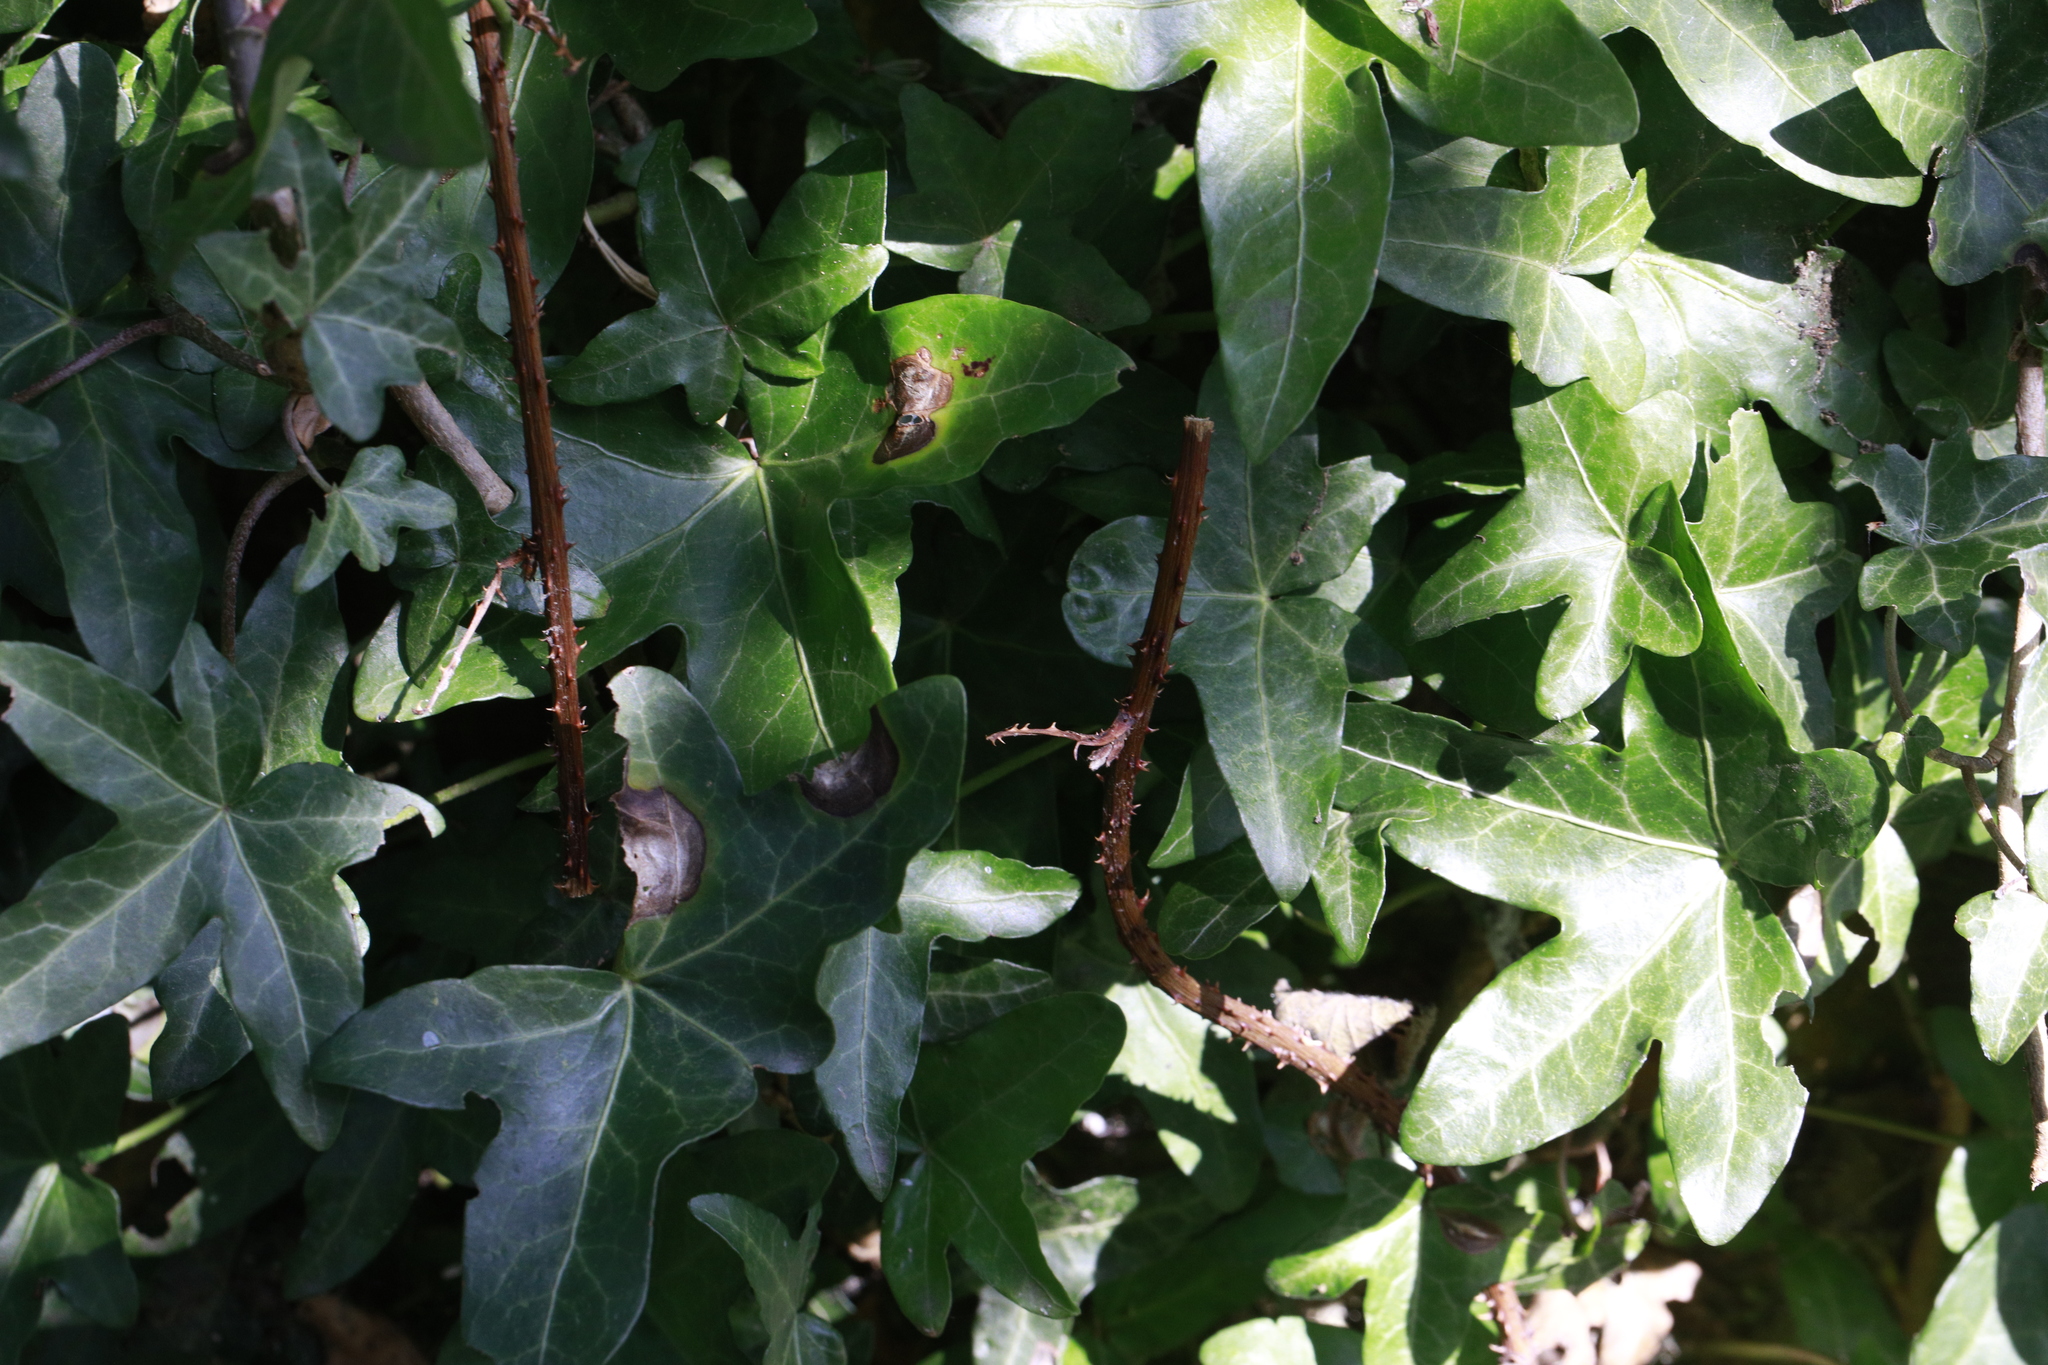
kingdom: Plantae
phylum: Tracheophyta
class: Magnoliopsida
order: Apiales
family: Araliaceae
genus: Hedera
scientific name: Hedera helix
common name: Ivy
